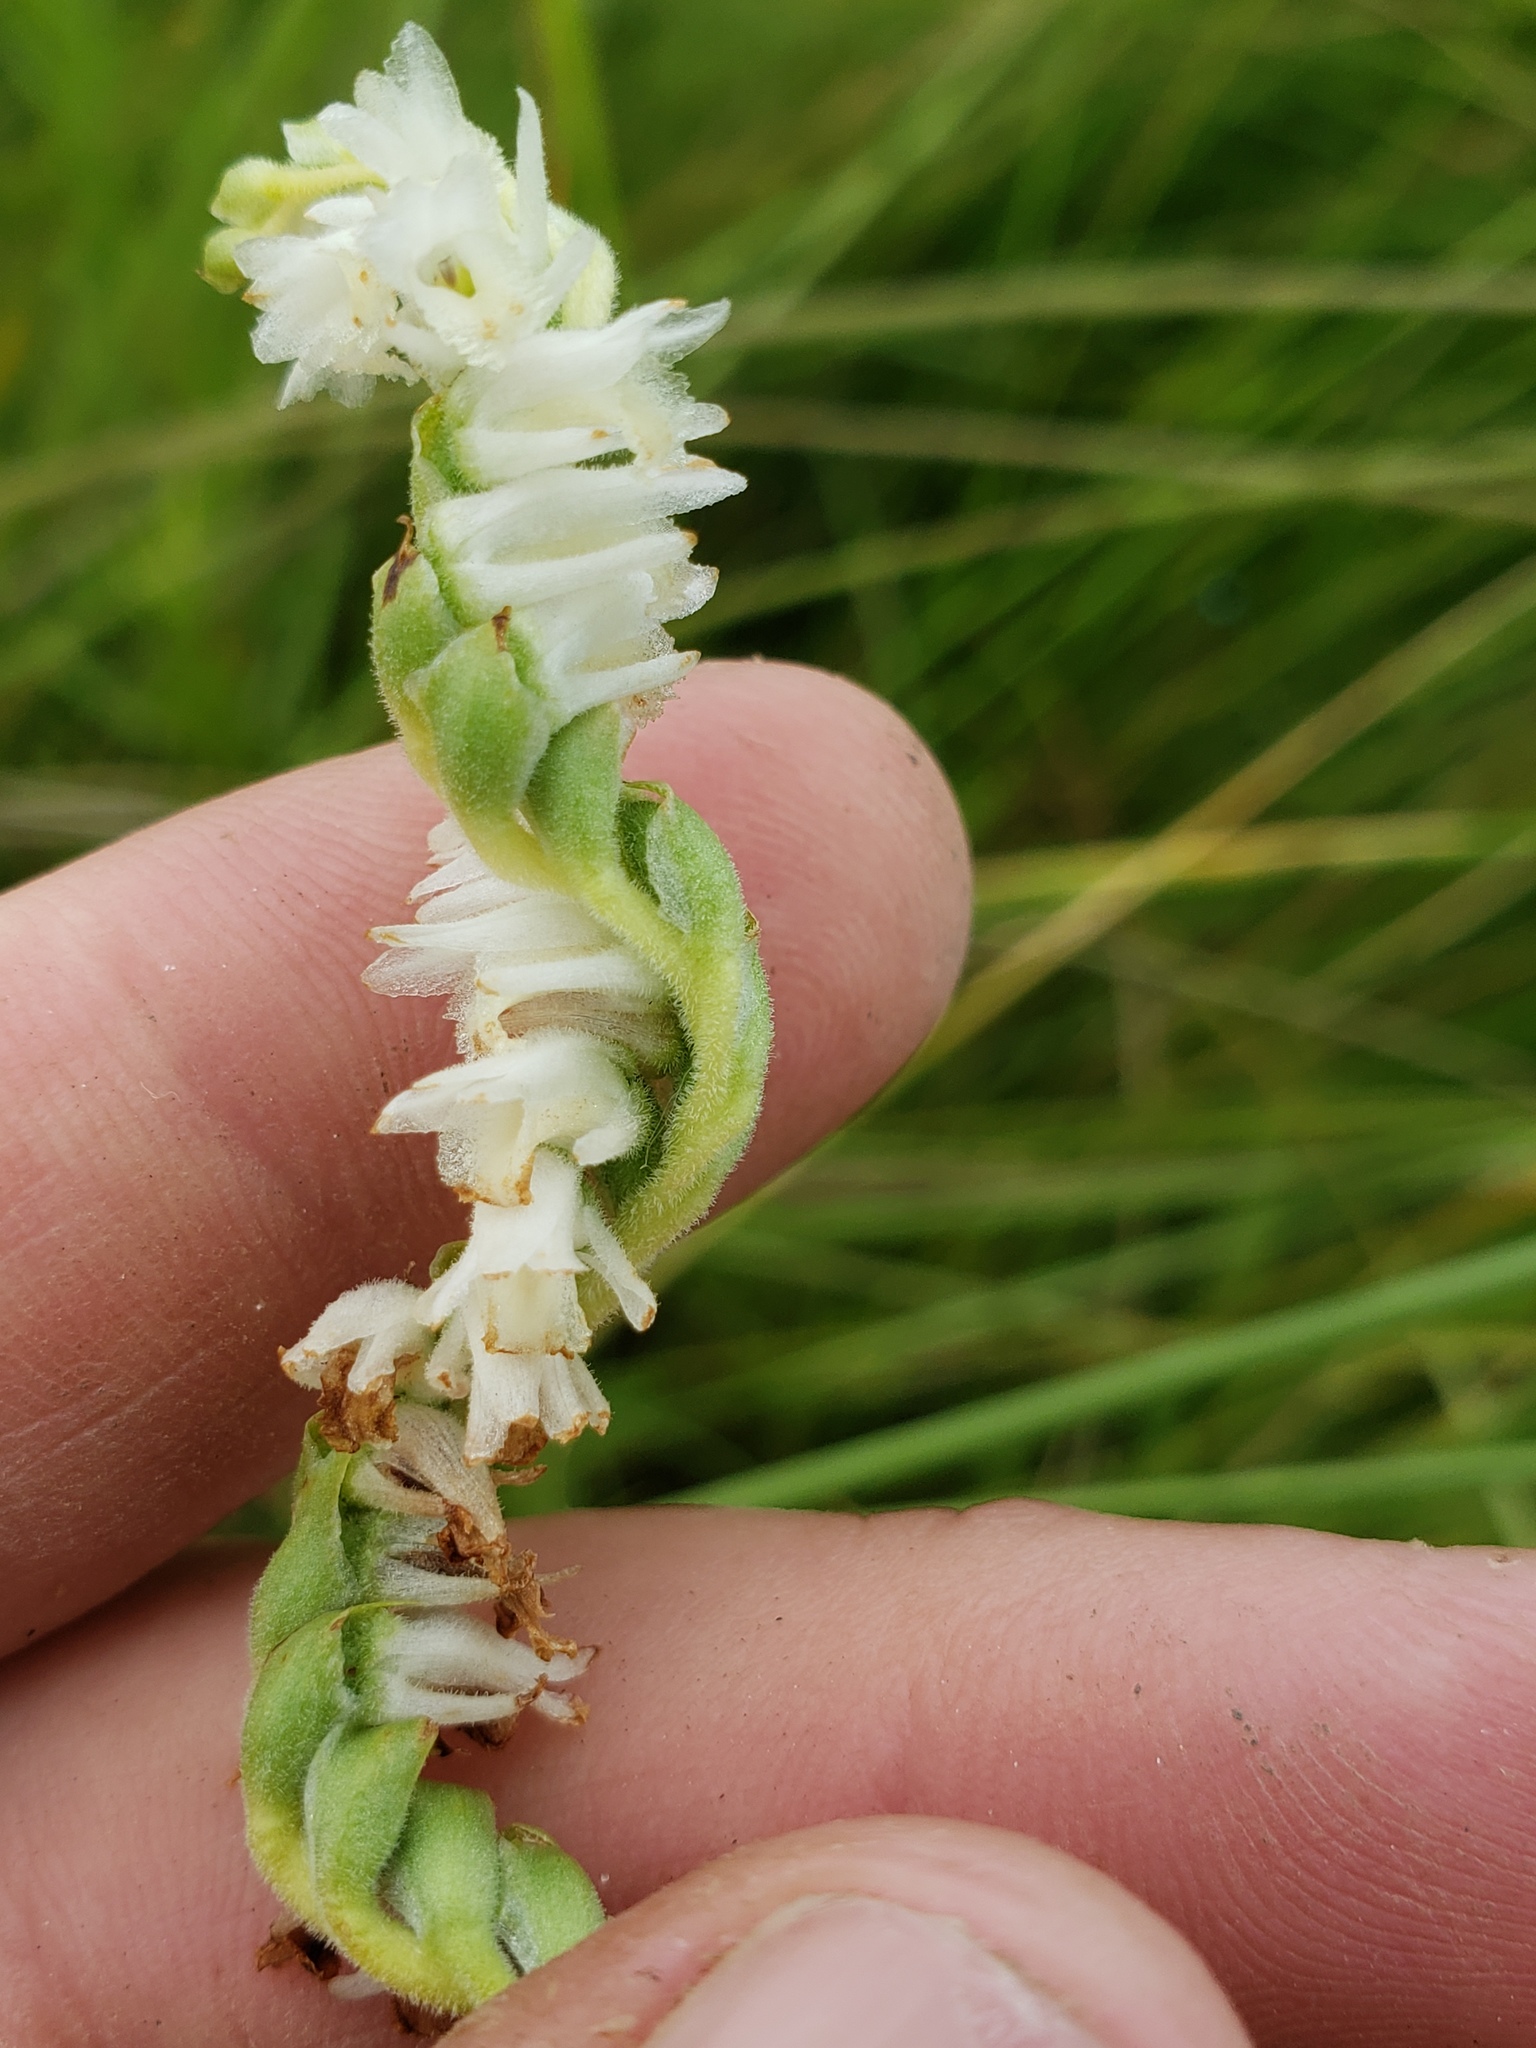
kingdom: Plantae
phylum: Tracheophyta
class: Liliopsida
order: Asparagales
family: Orchidaceae
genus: Spiranthes
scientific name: Spiranthes vernalis
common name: Spring ladies'-tresses
